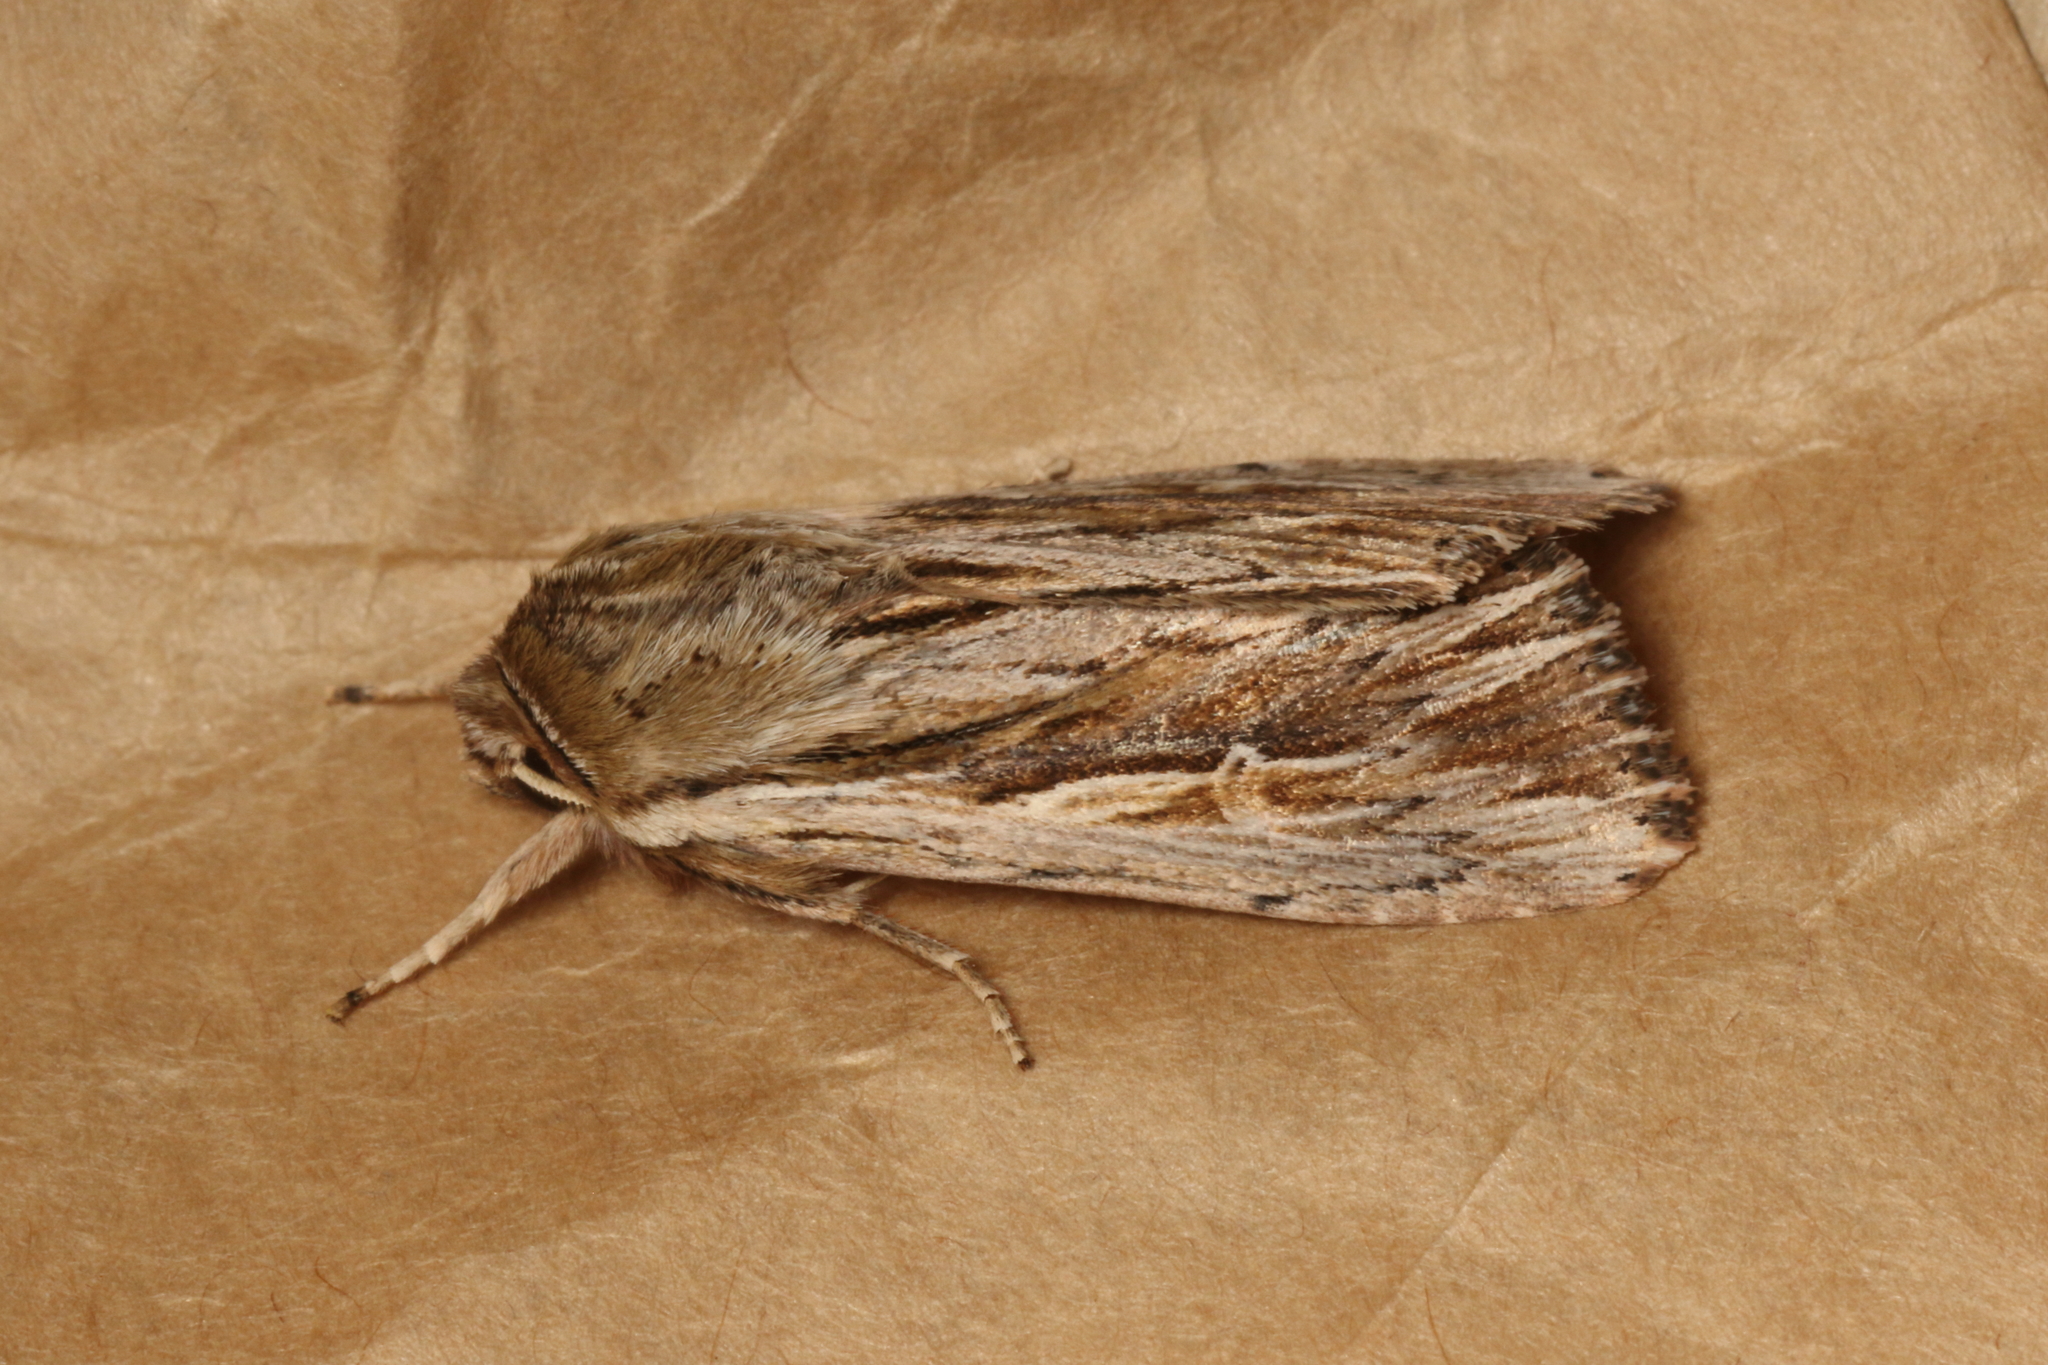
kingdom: Animalia
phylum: Arthropoda
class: Insecta
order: Lepidoptera
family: Noctuidae
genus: Persectania
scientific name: Persectania aversa
